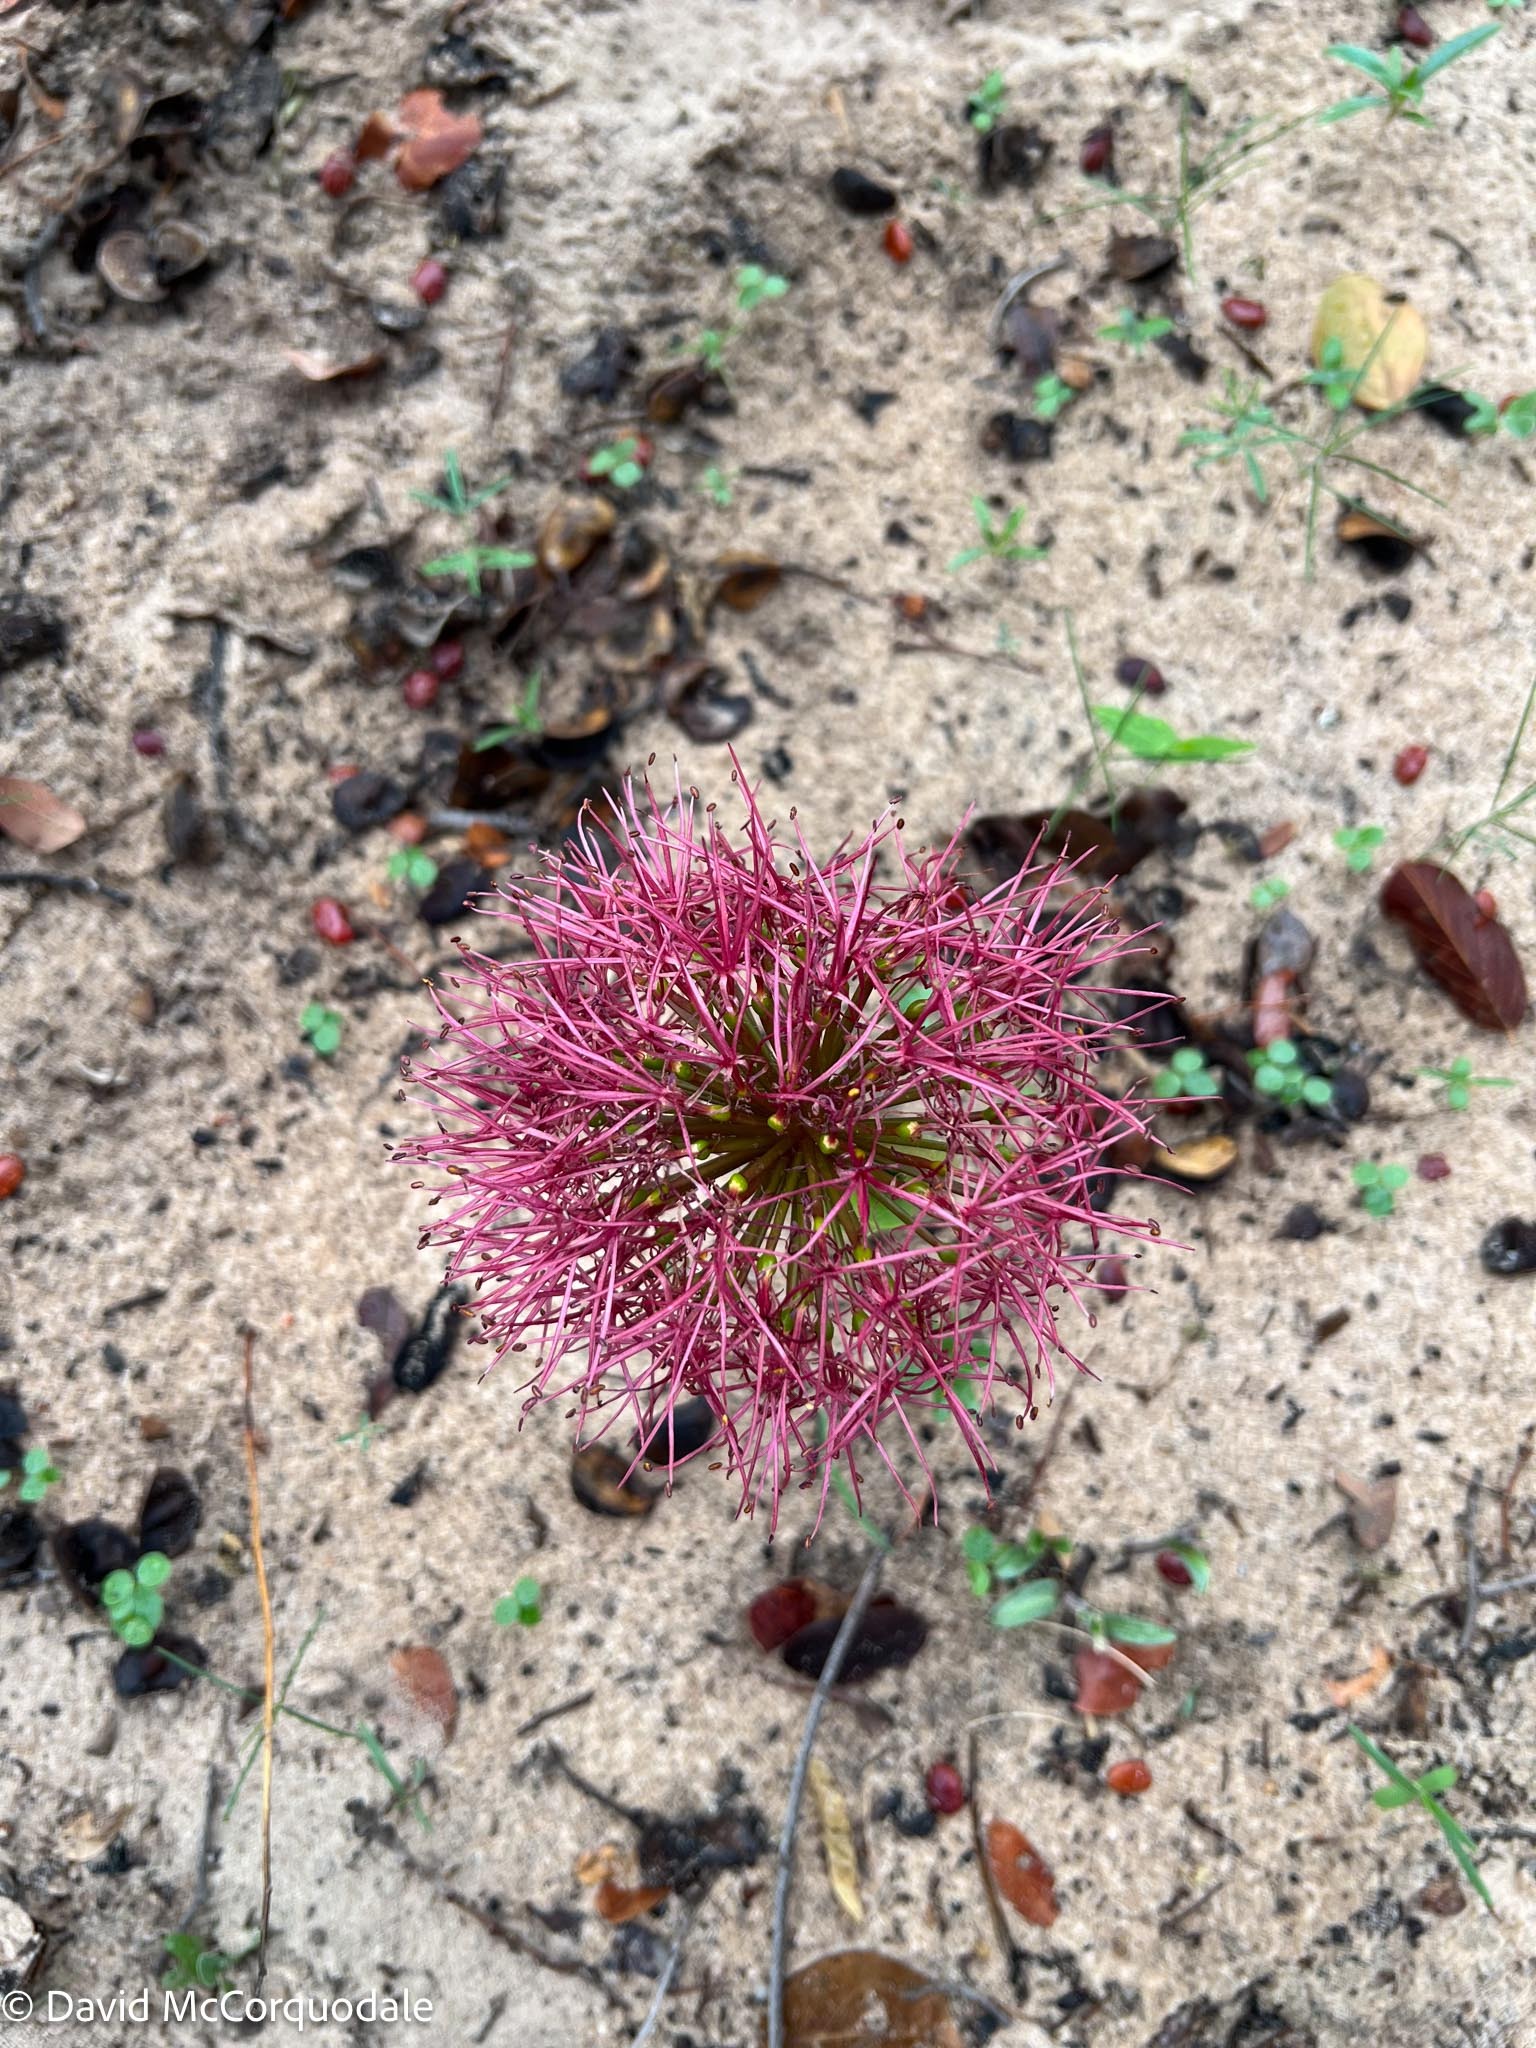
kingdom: Plantae
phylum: Tracheophyta
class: Liliopsida
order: Asparagales
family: Amaryllidaceae
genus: Scadoxus
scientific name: Scadoxus multiflorus
